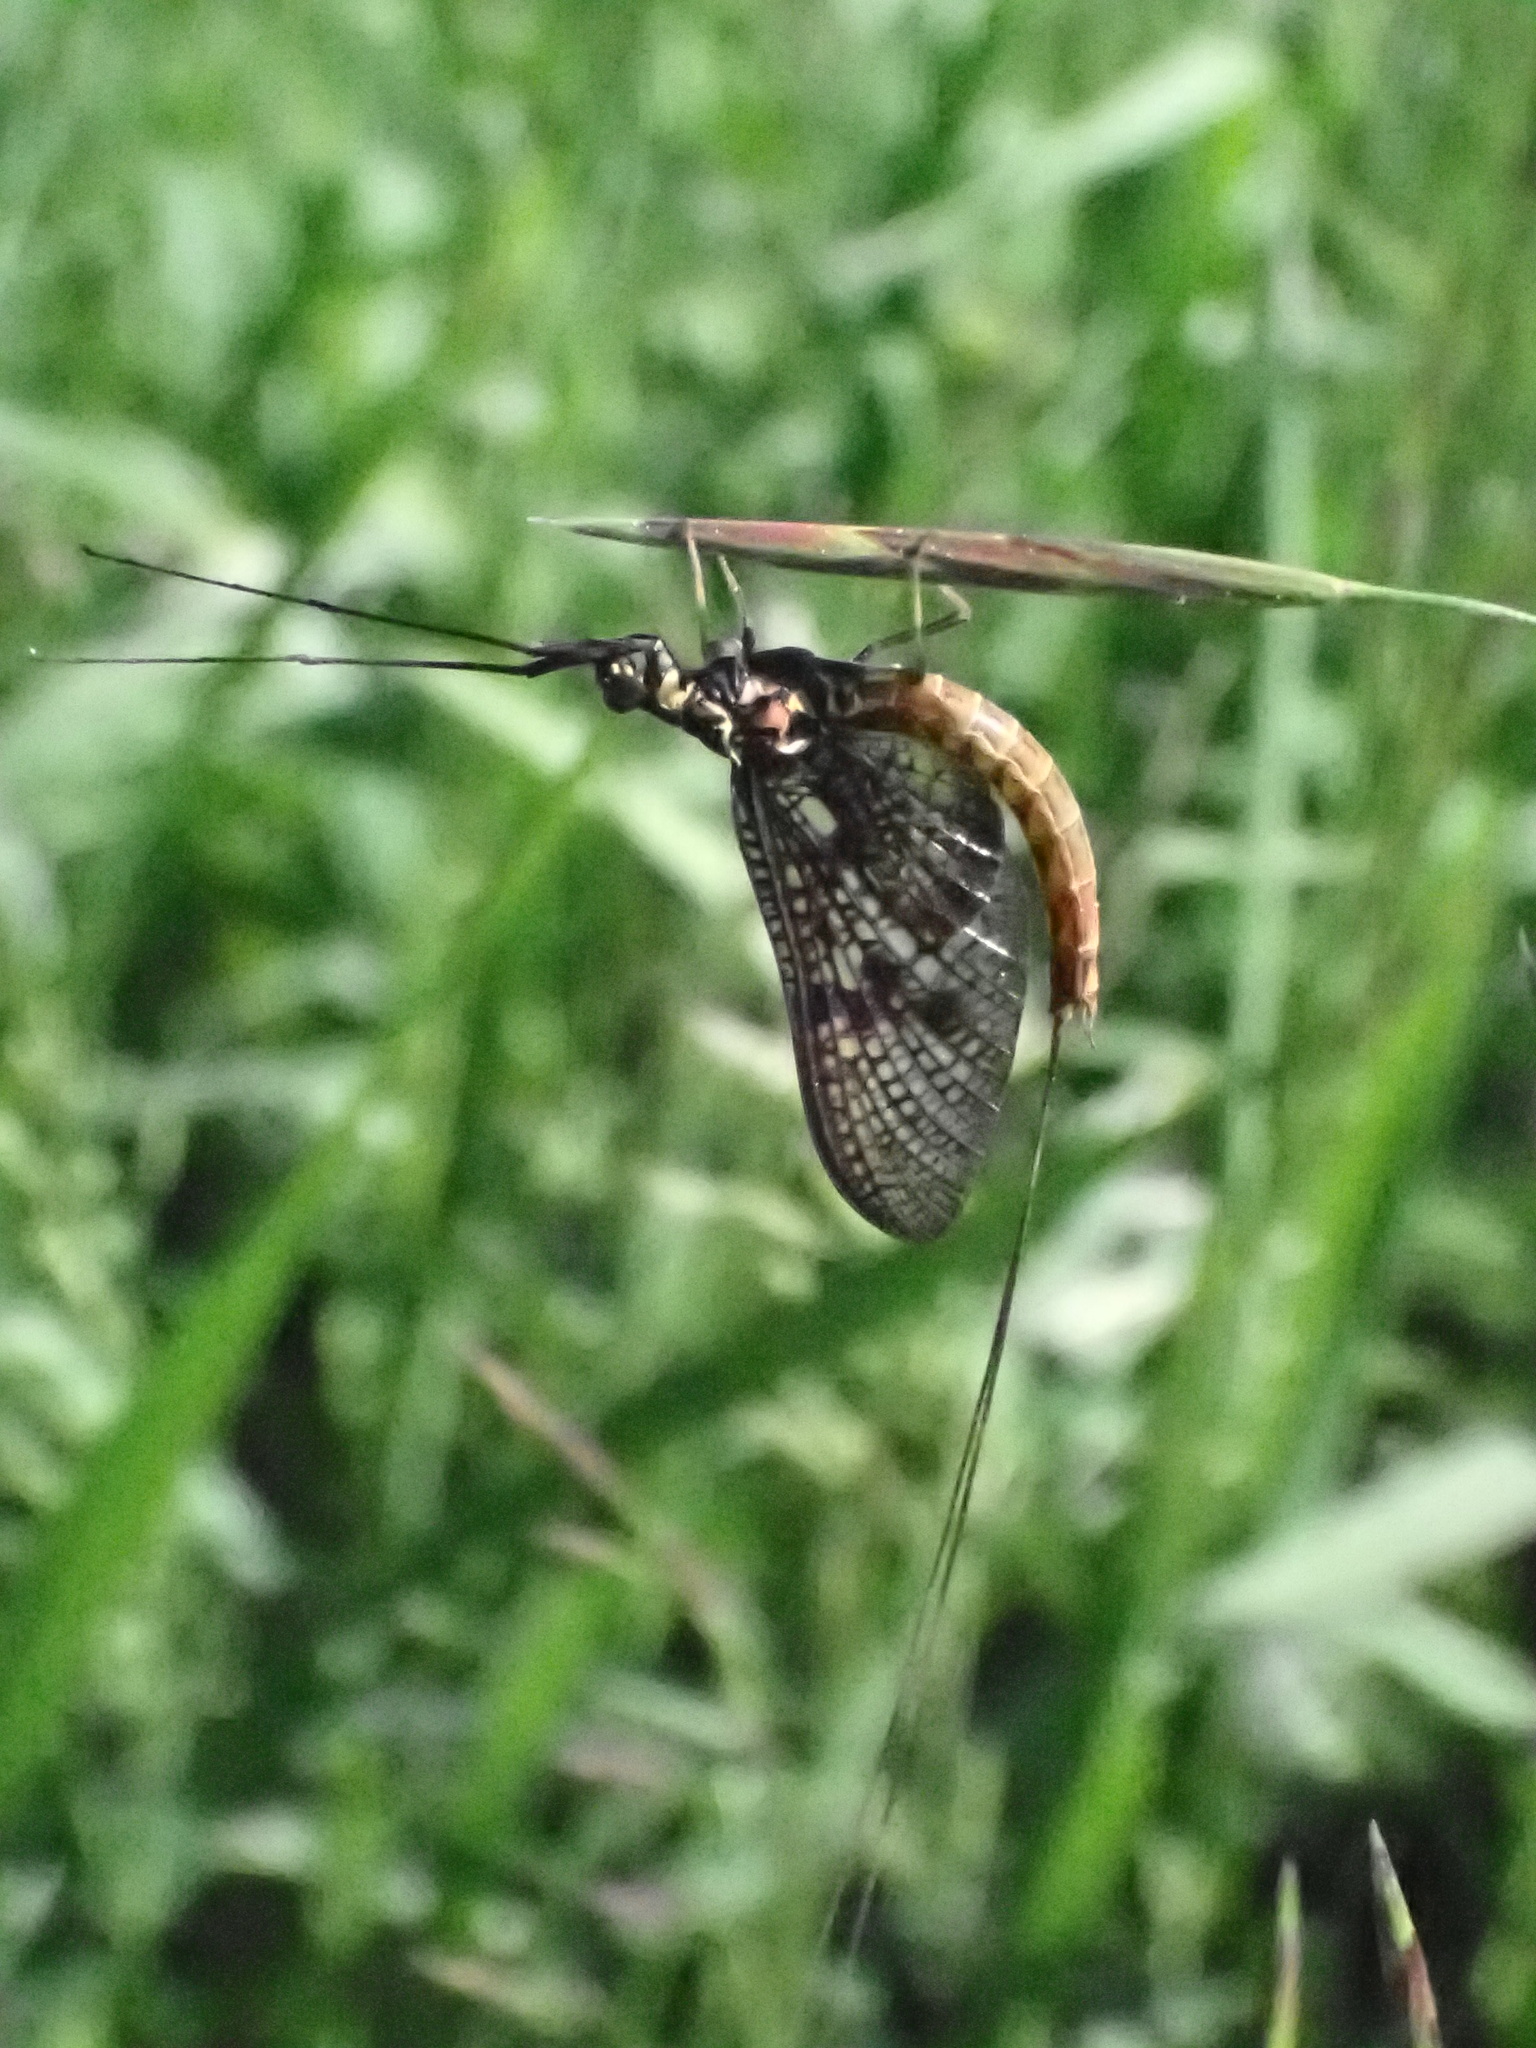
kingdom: Animalia
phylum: Arthropoda
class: Insecta
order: Ephemeroptera
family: Ephemeridae
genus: Ephemera
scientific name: Ephemera vulgata
